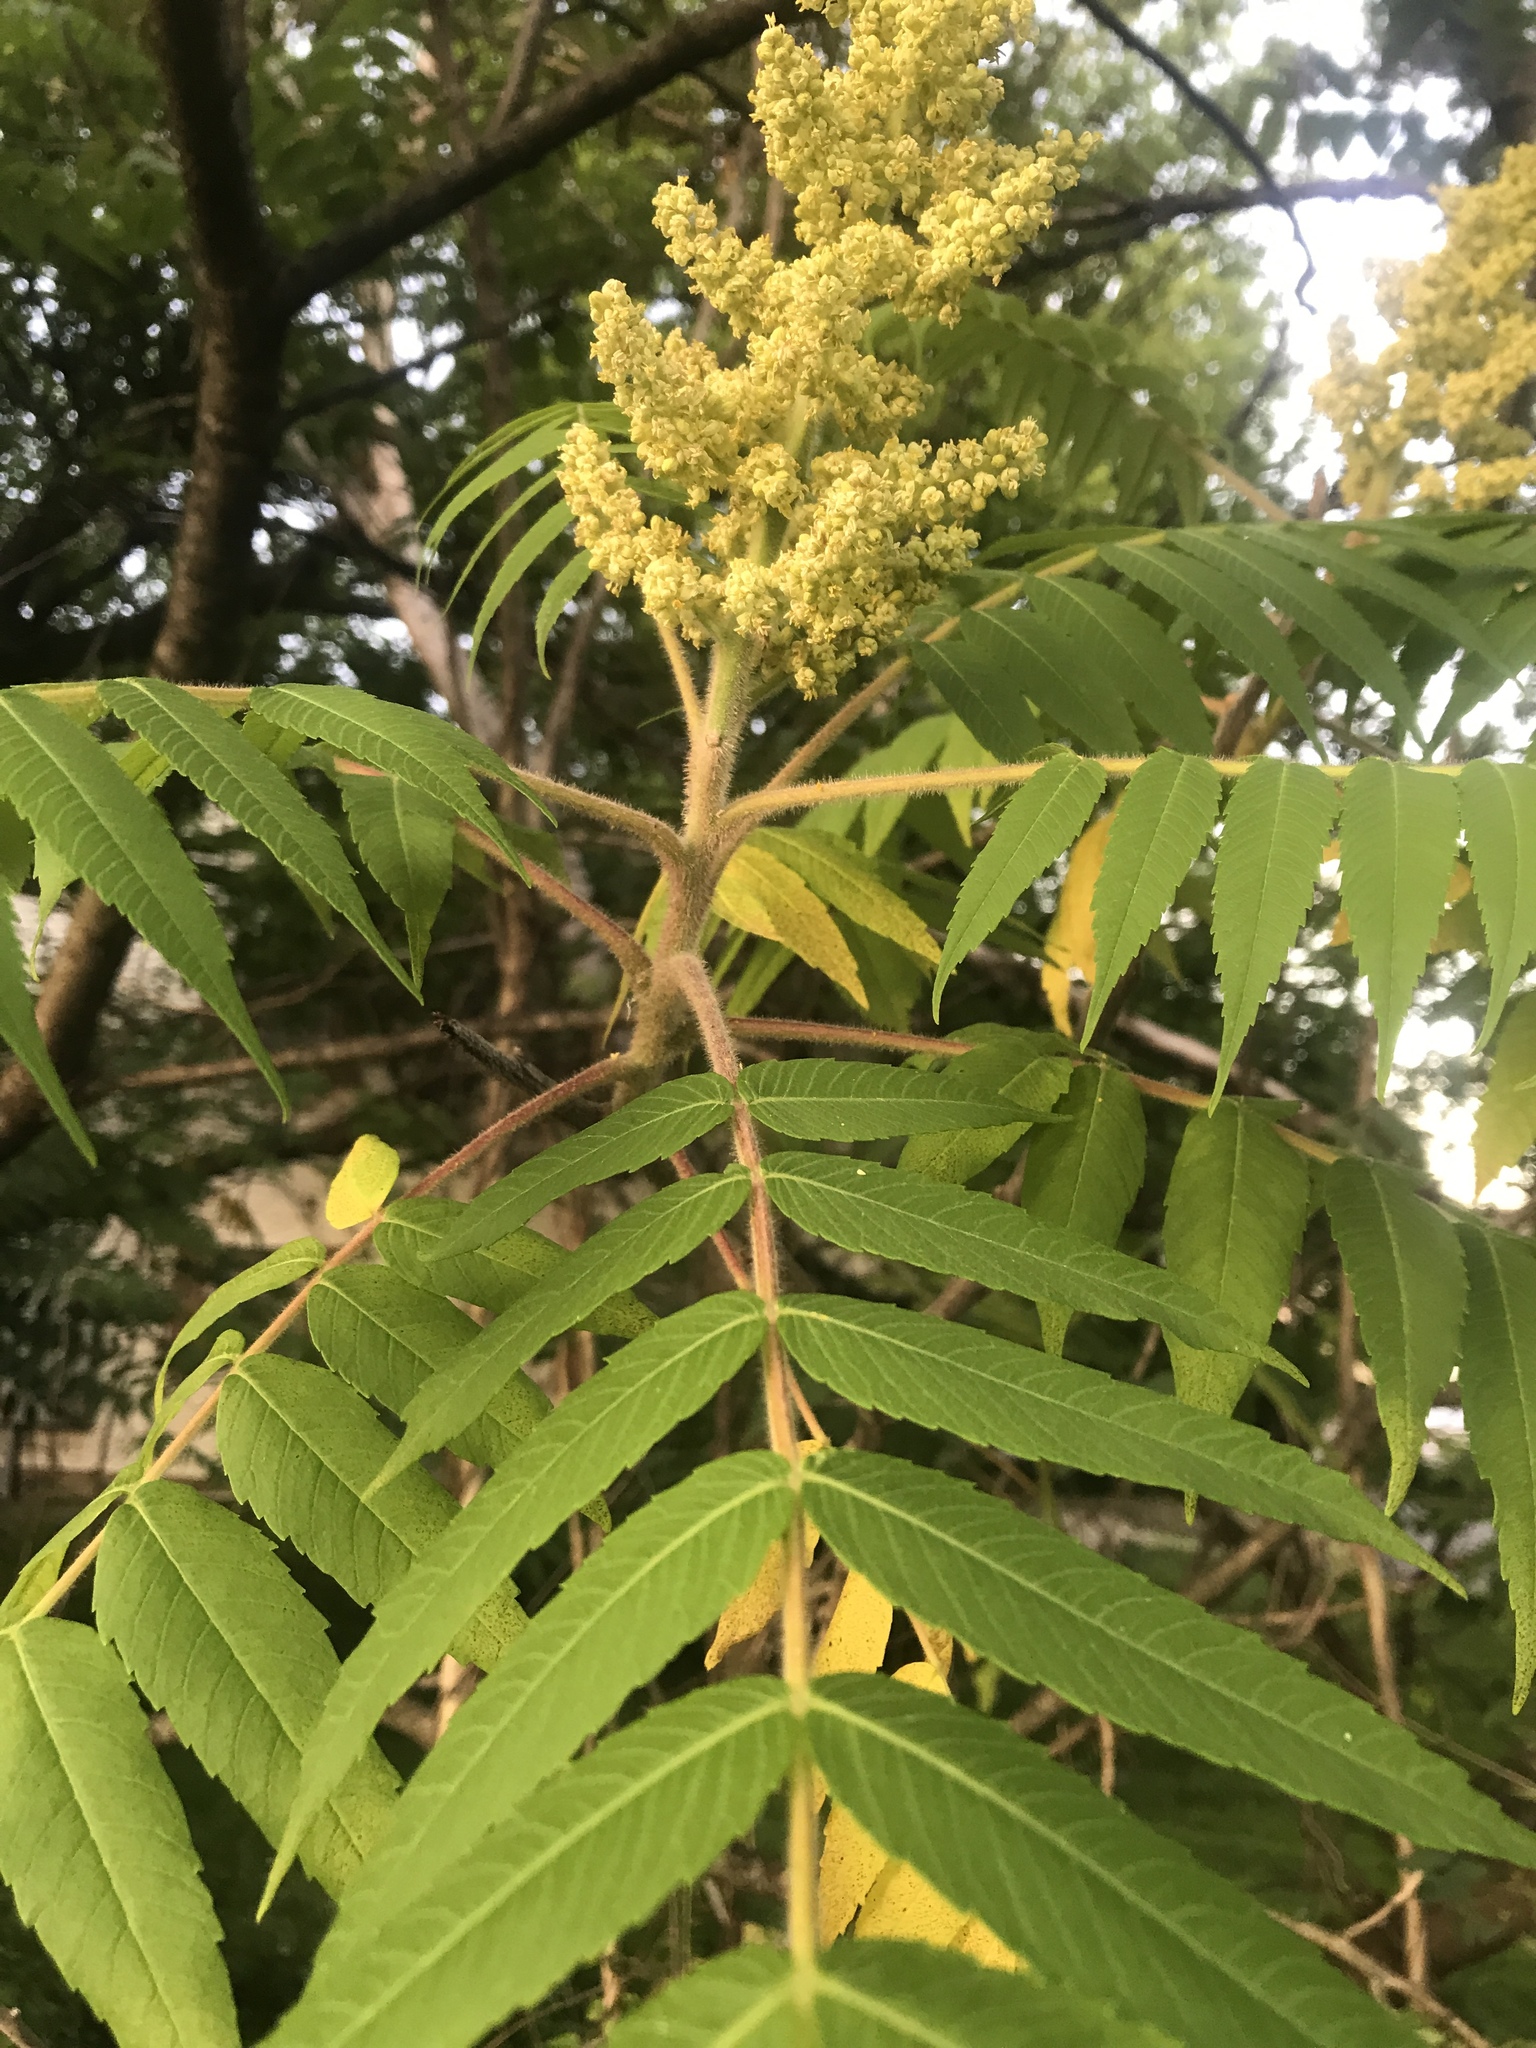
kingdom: Plantae
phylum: Tracheophyta
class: Magnoliopsida
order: Sapindales
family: Anacardiaceae
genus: Rhus
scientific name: Rhus typhina
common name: Staghorn sumac
